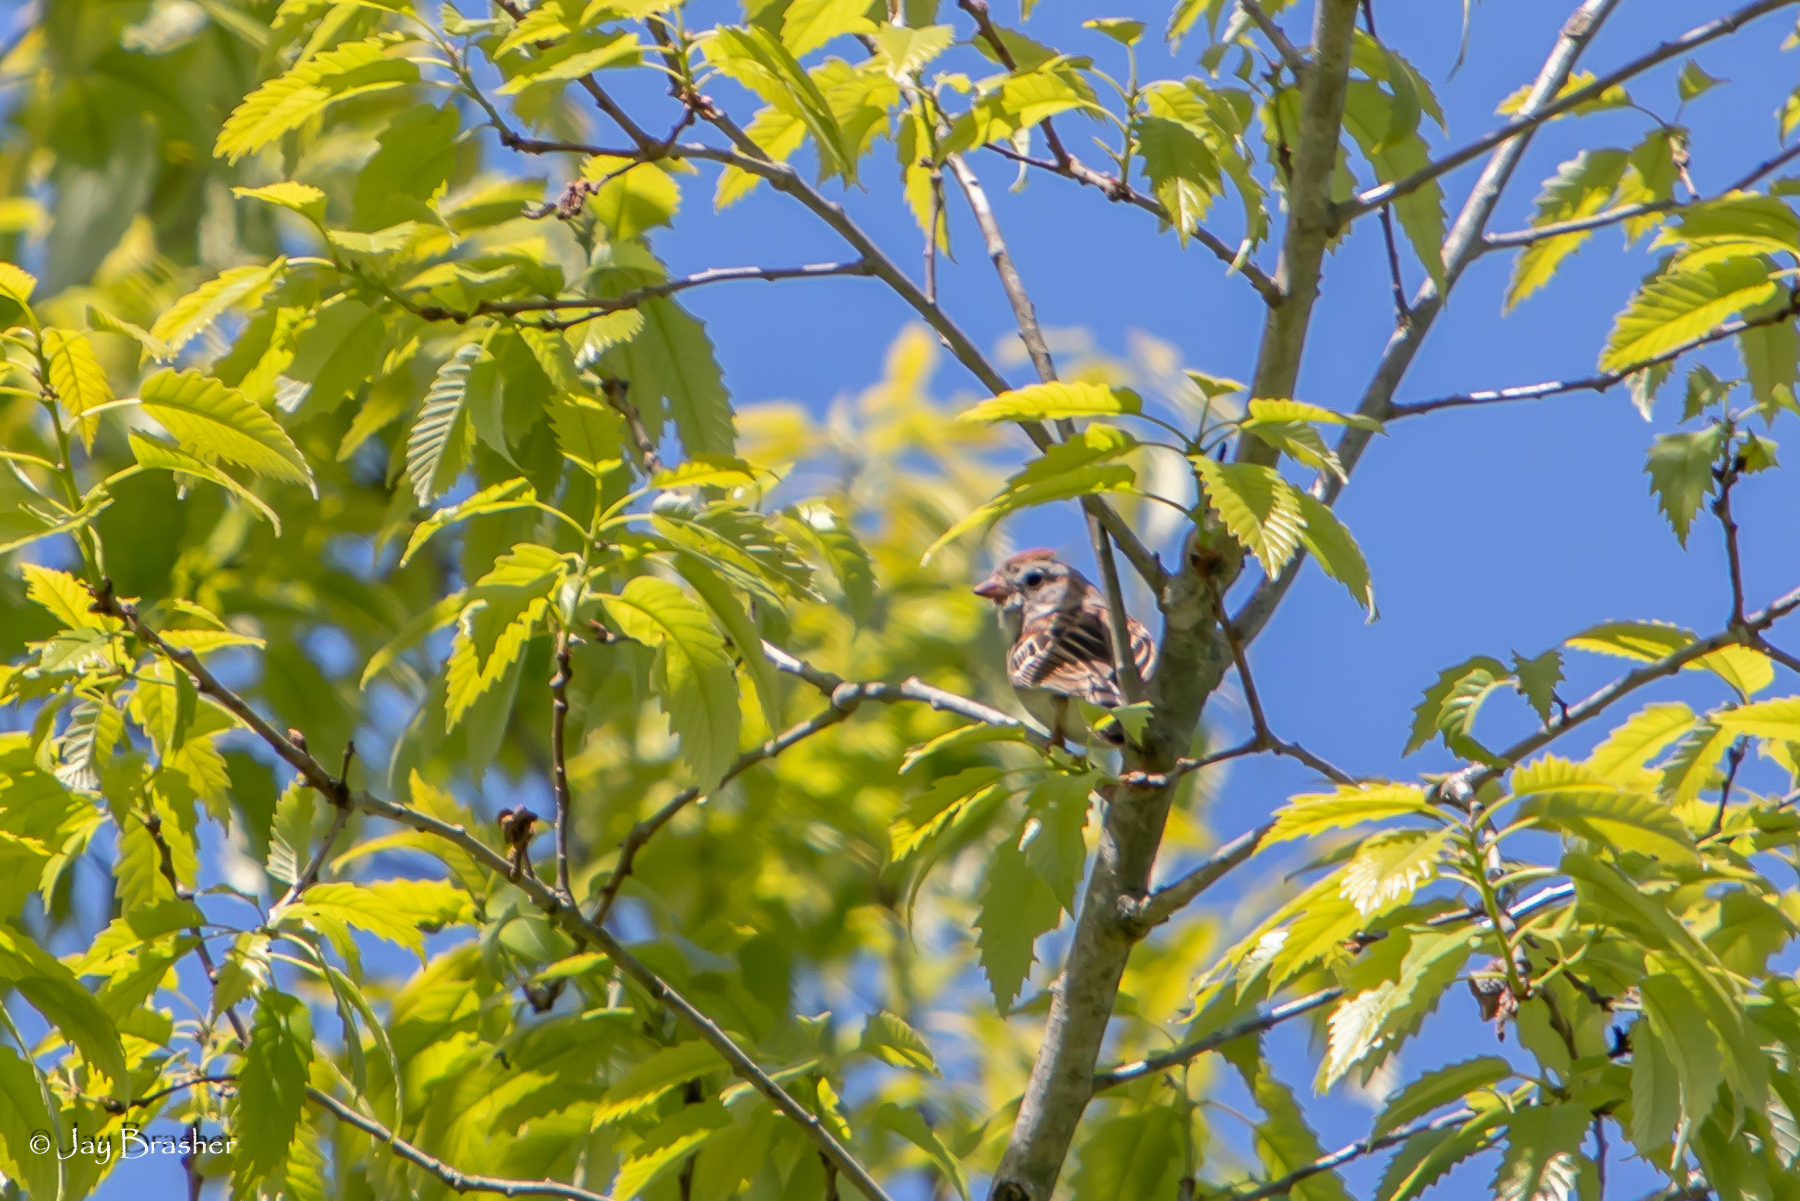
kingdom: Animalia
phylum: Chordata
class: Aves
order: Passeriformes
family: Passerellidae
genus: Spizella
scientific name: Spizella pusilla
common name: Field sparrow
